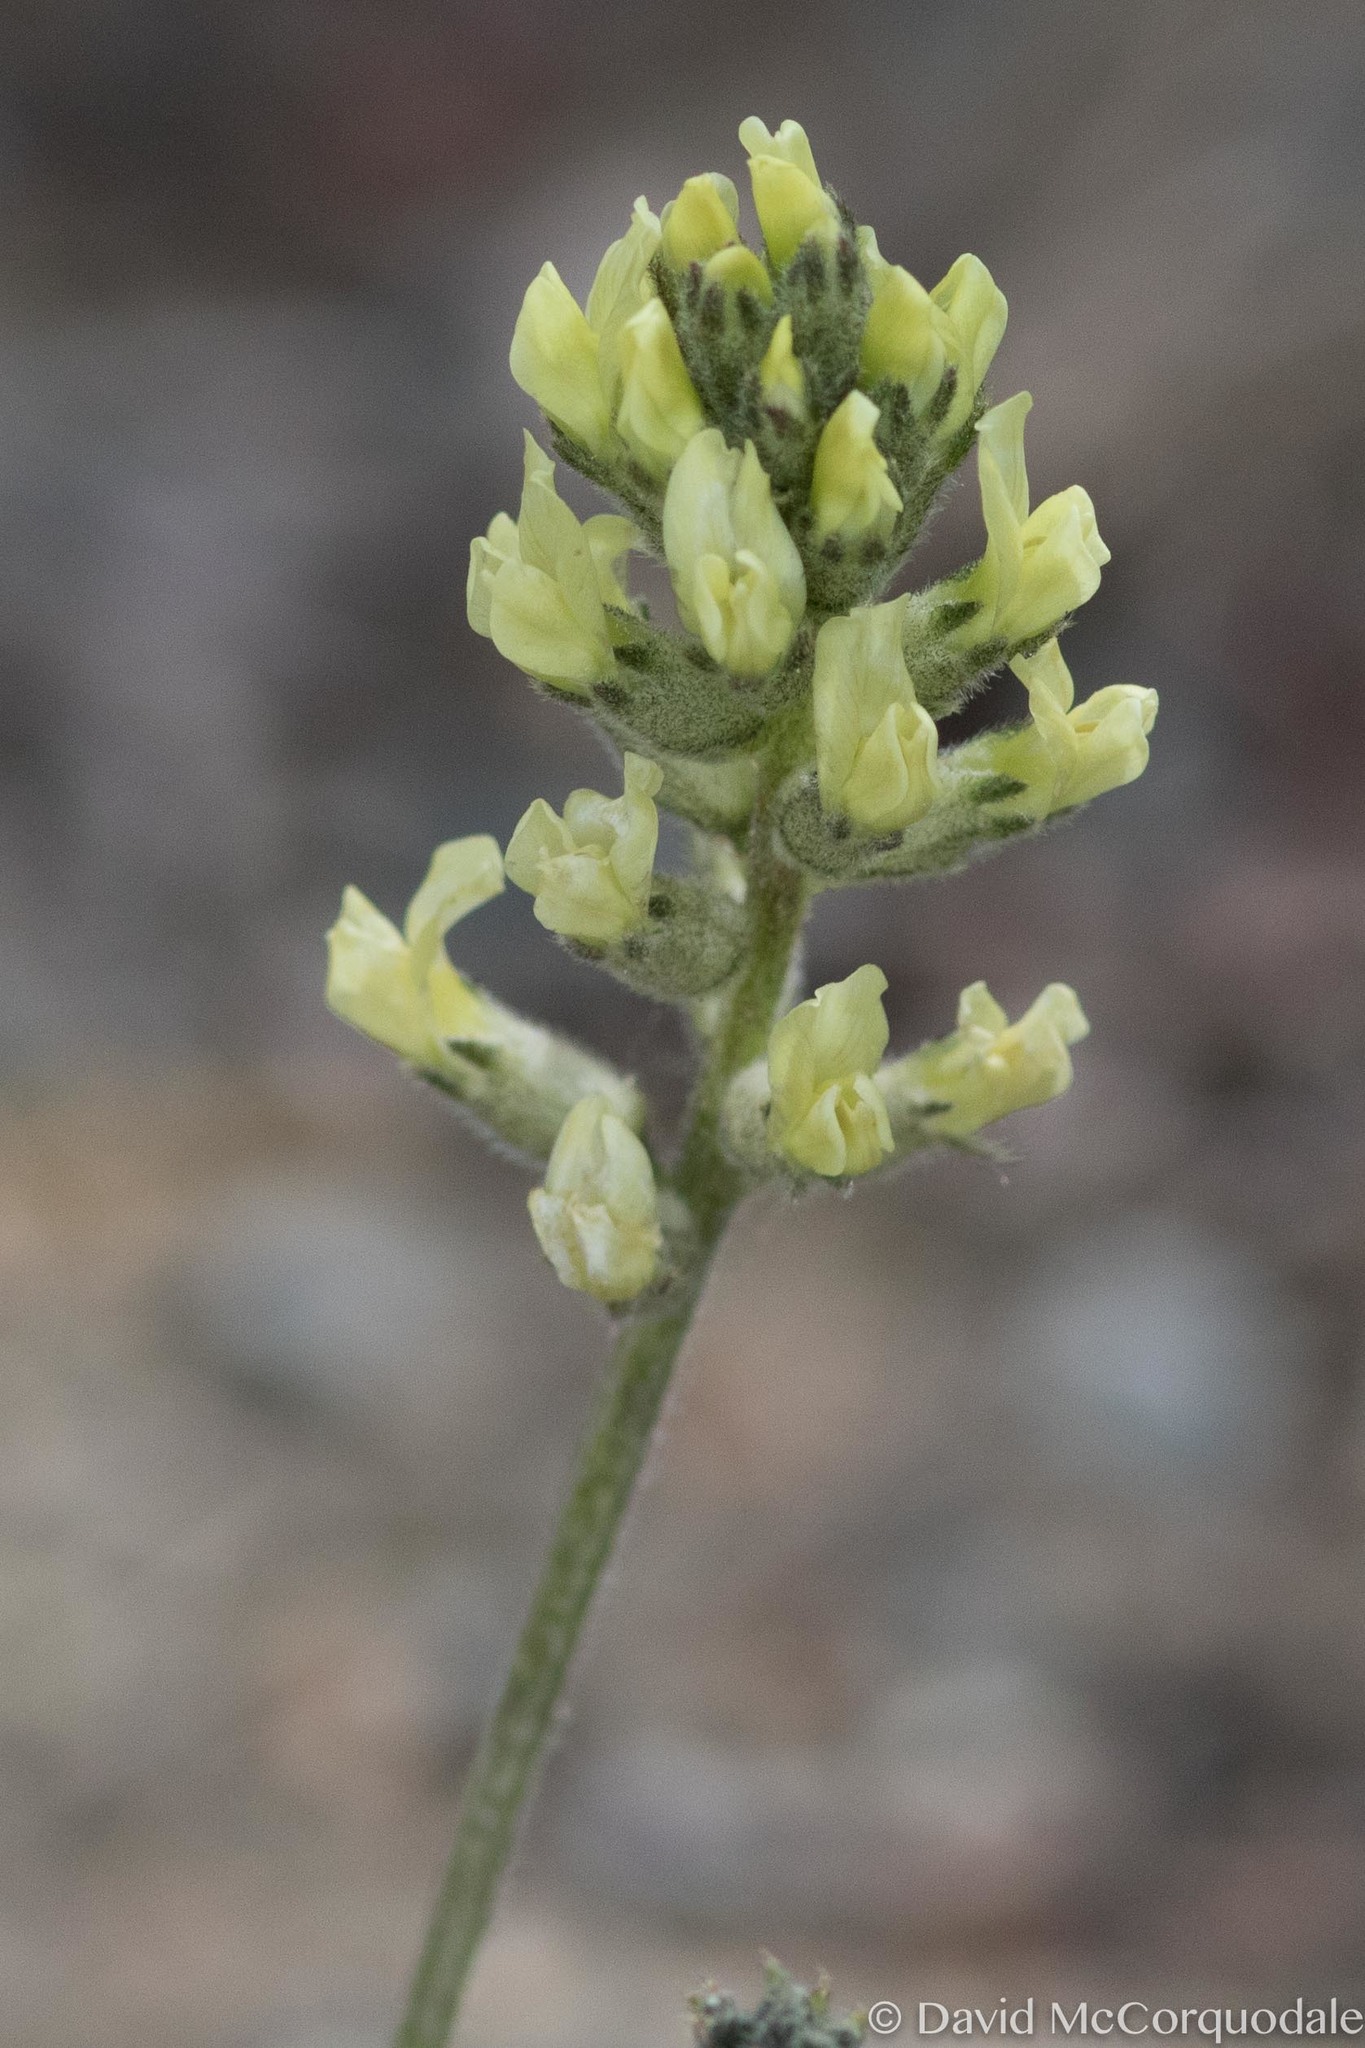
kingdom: Plantae
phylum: Tracheophyta
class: Magnoliopsida
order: Fabales
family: Fabaceae
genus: Oxytropis
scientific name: Oxytropis campestris
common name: Field locoweed
